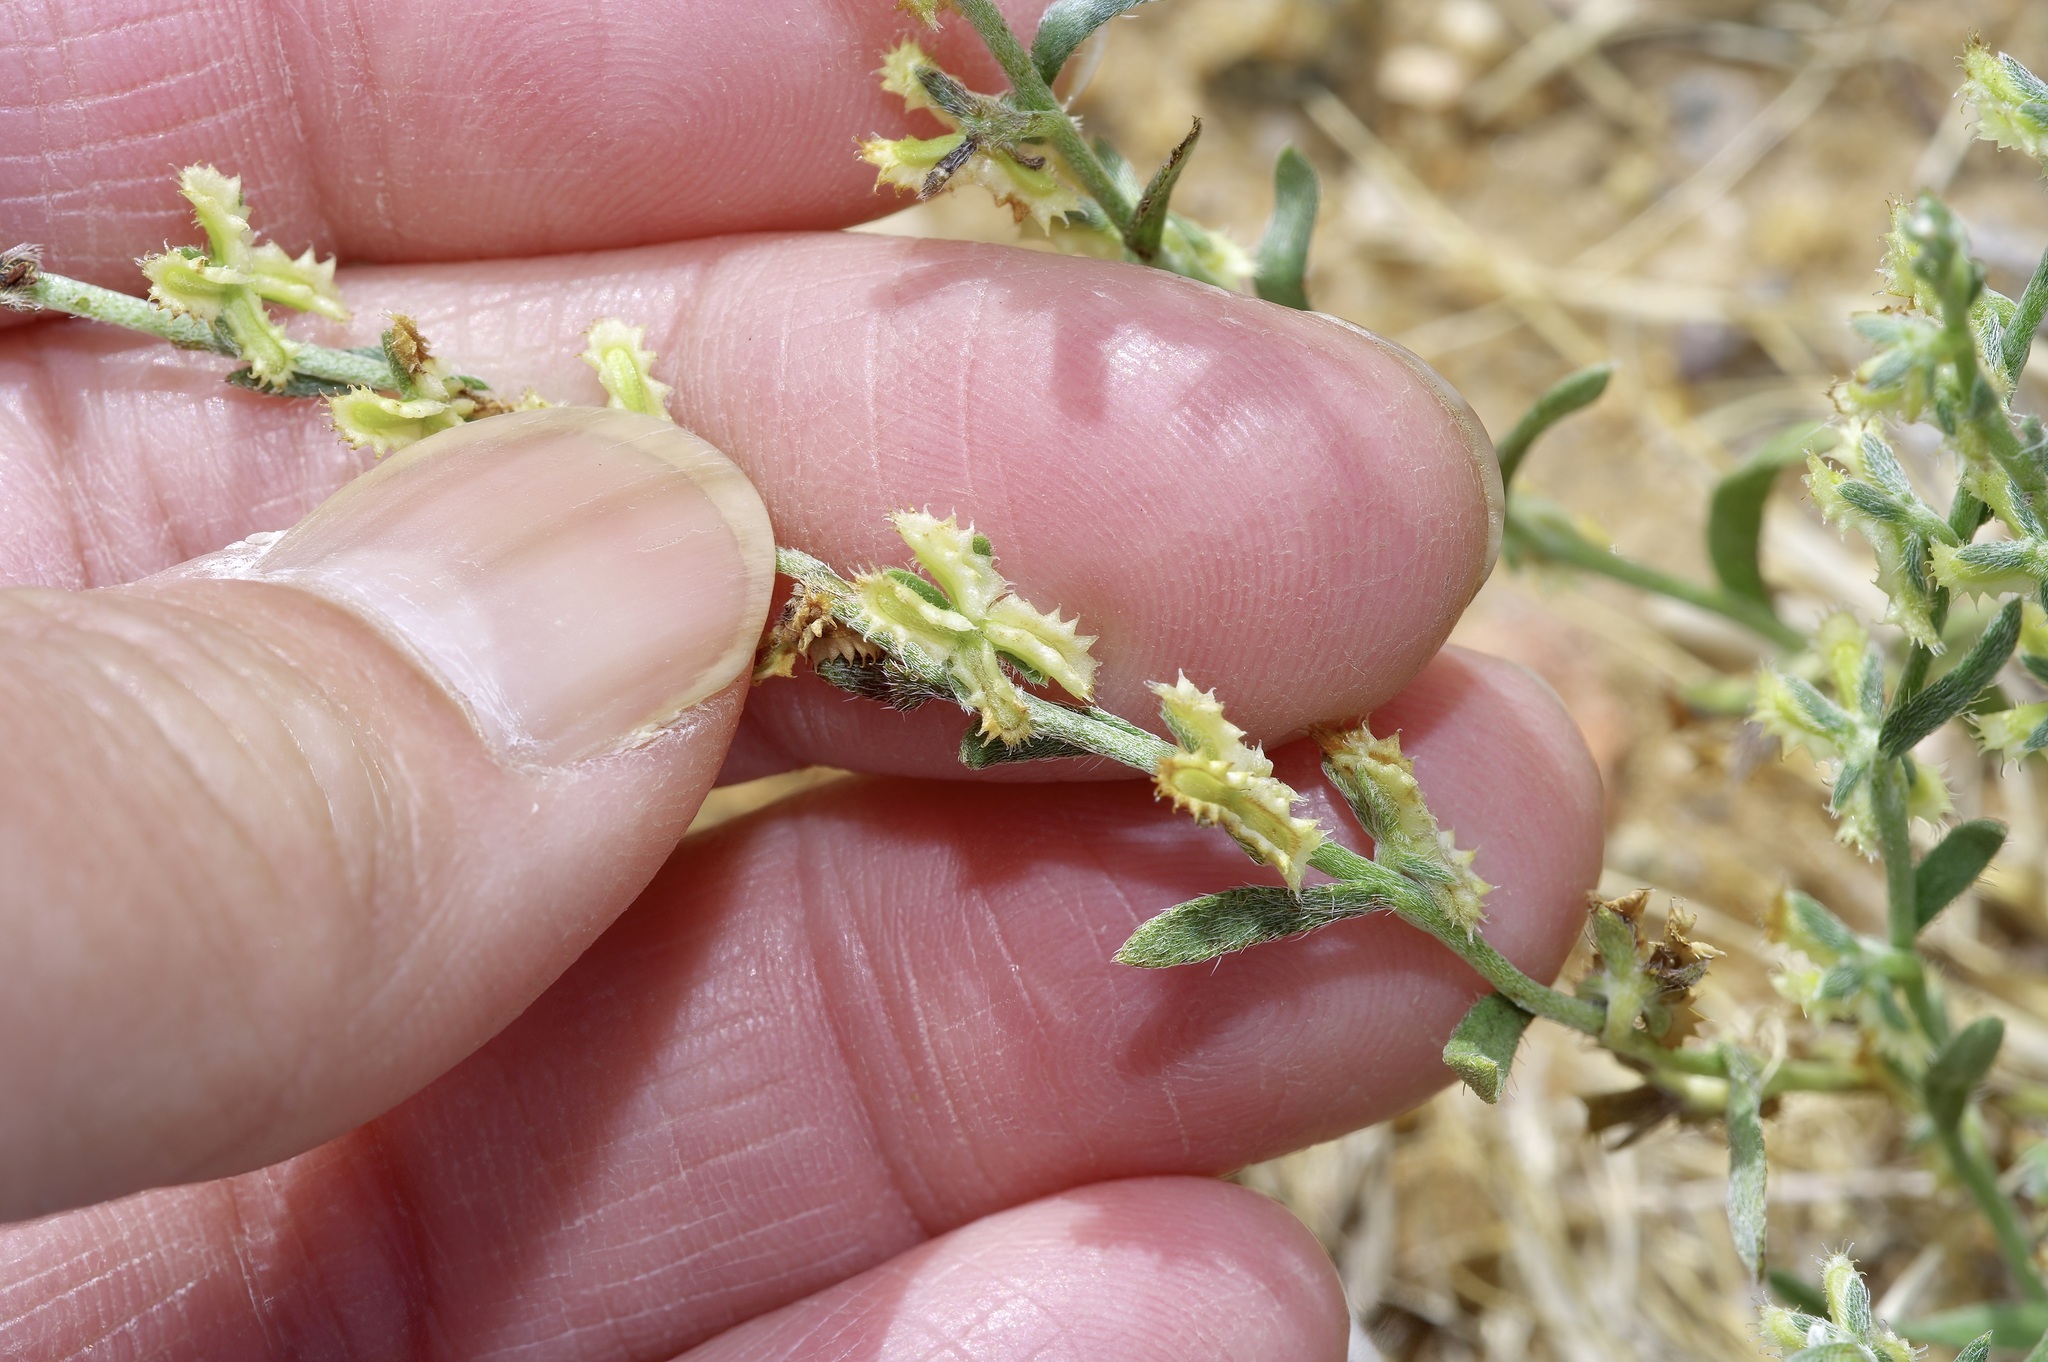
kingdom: Plantae
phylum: Tracheophyta
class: Magnoliopsida
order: Boraginales
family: Boraginaceae
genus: Pectocarya
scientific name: Pectocarya platycarpa
